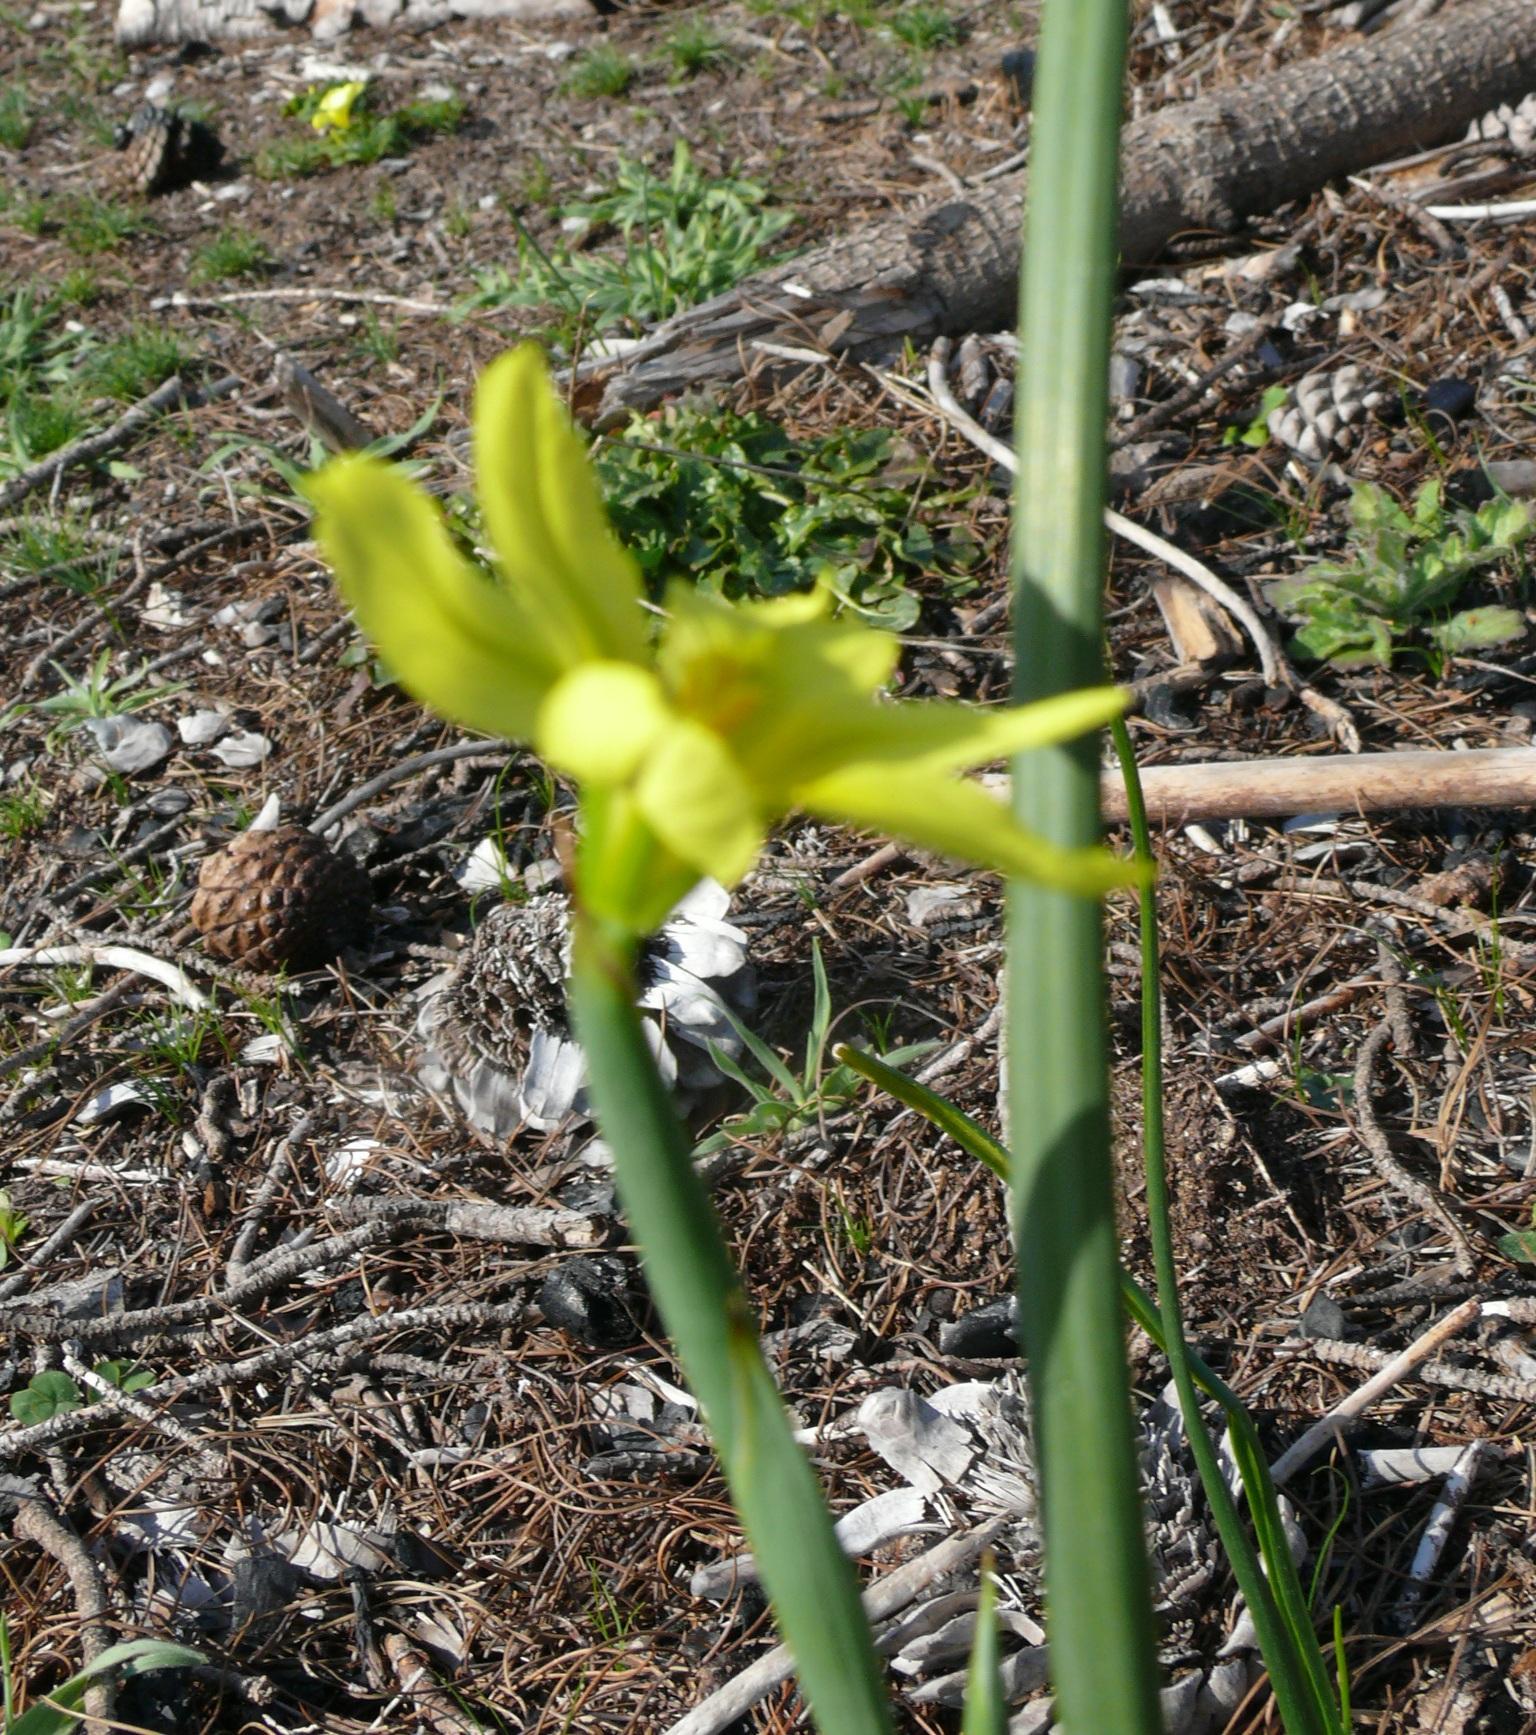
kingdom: Plantae
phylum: Tracheophyta
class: Liliopsida
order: Asparagales
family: Iridaceae
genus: Moraea
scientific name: Moraea collina
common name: Cape-tulip
